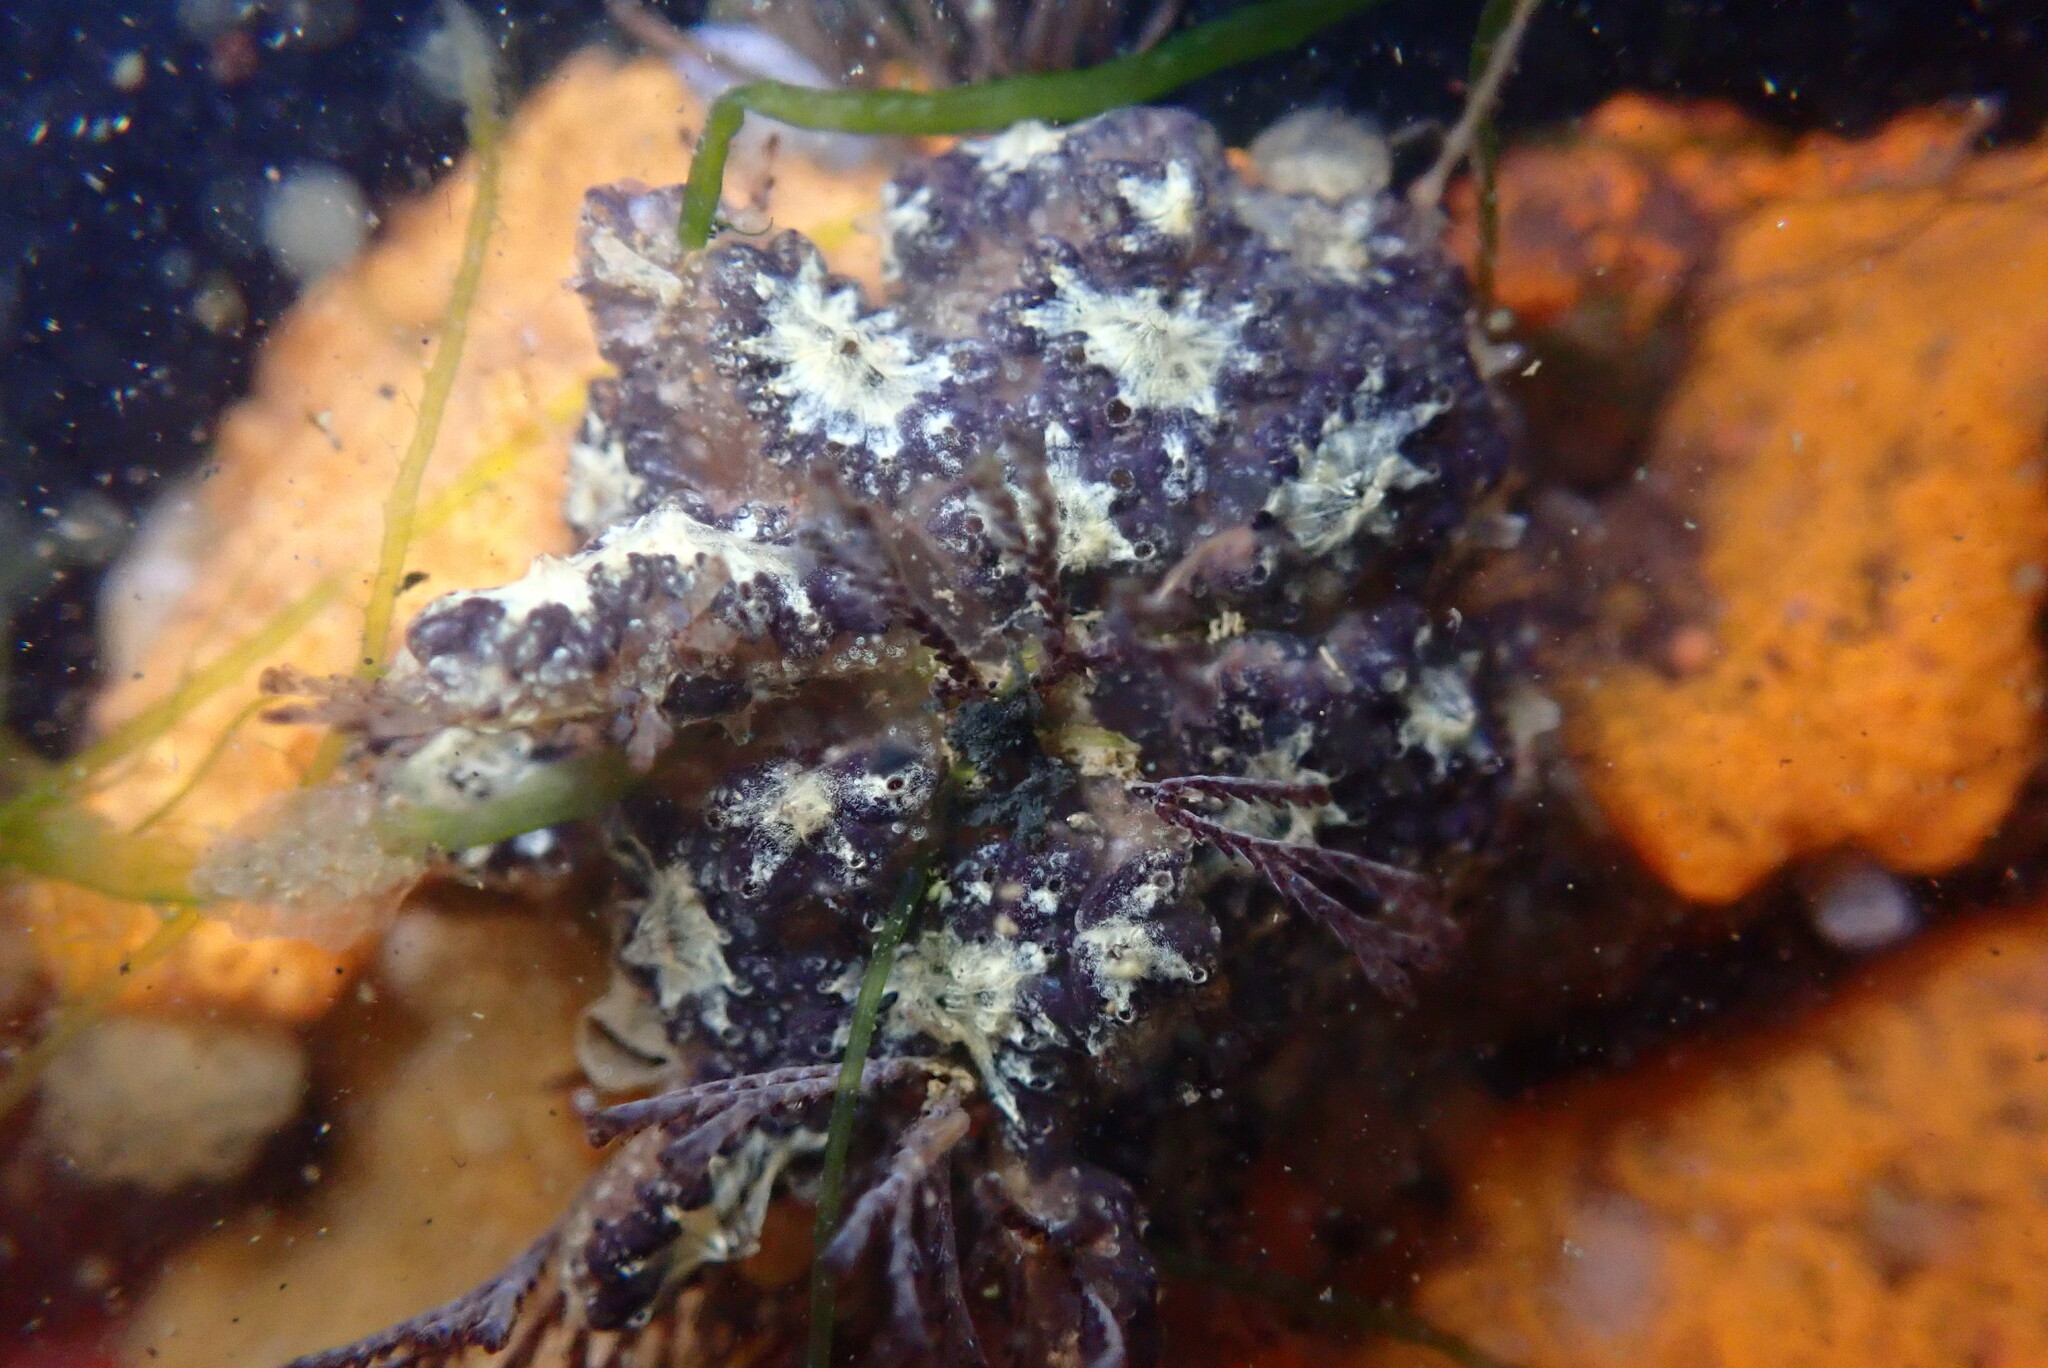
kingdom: Animalia
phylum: Chordata
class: Ascidiacea
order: Stolidobranchia
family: Styelidae
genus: Botryllus
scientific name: Botryllus schlosseri
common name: Golden star tunicate
